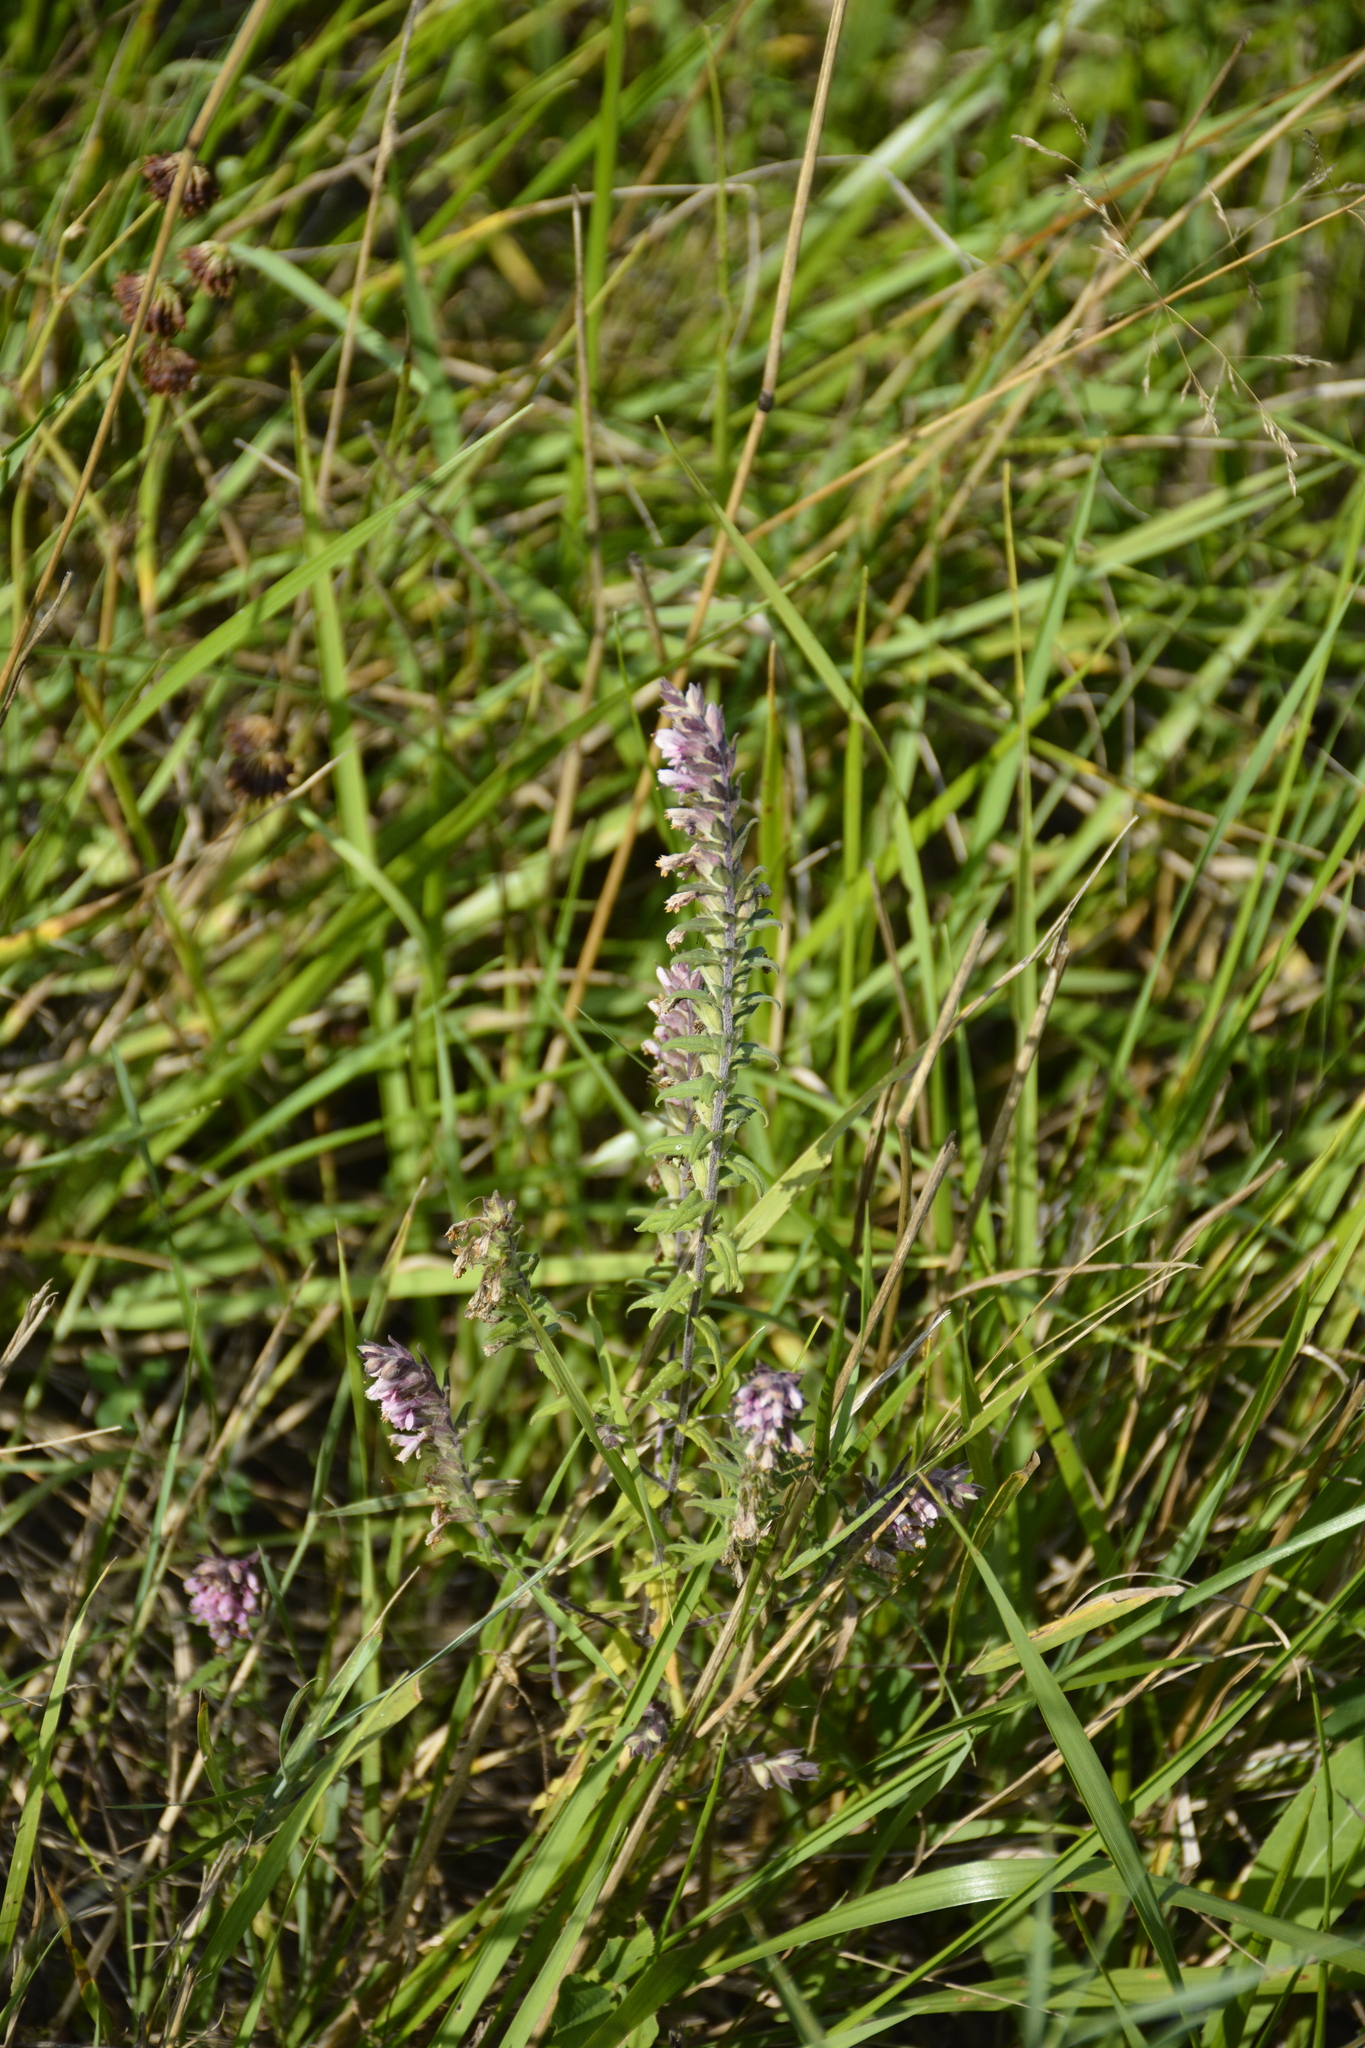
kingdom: Plantae
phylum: Tracheophyta
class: Magnoliopsida
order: Lamiales
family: Orobanchaceae
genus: Odontites
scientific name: Odontites vulgaris
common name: Broomrape
